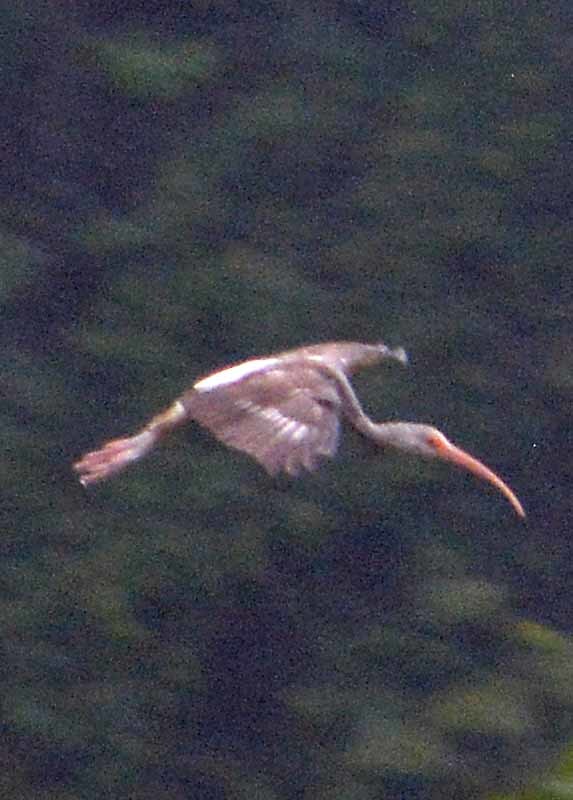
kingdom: Animalia
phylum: Chordata
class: Aves
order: Pelecaniformes
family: Threskiornithidae
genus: Eudocimus
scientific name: Eudocimus albus
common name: White ibis
